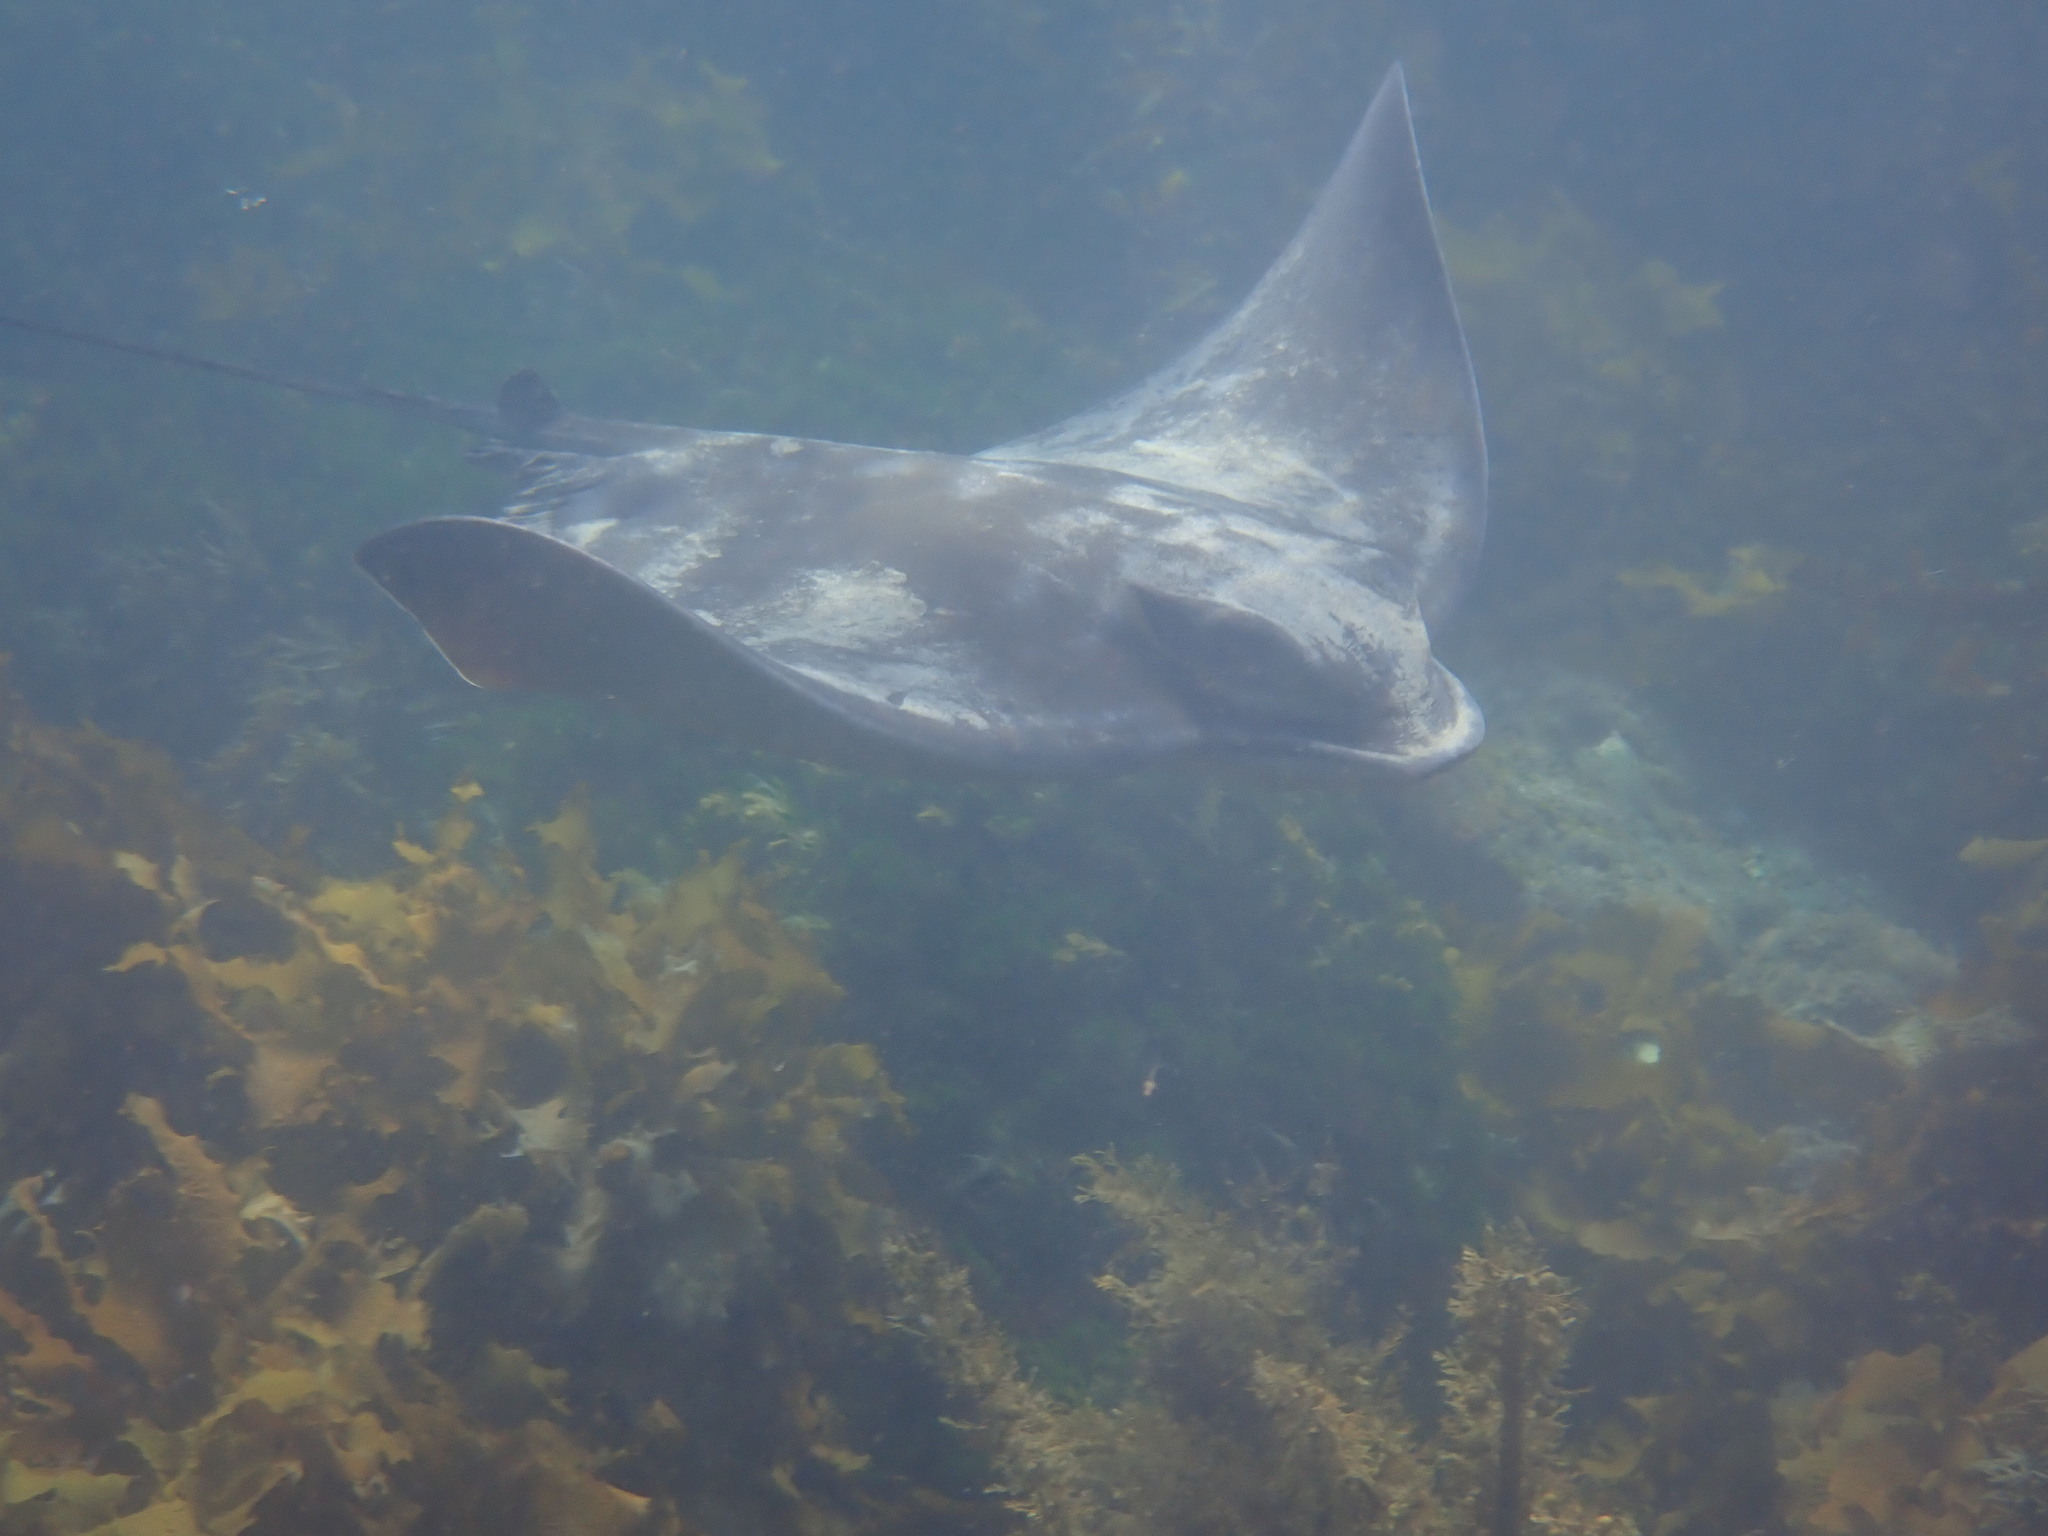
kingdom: Animalia
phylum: Chordata
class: Elasmobranchii
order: Myliobatiformes
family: Myliobatidae
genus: Myliobatis
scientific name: Myliobatis tenuicaudatus
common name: Eagle ray
